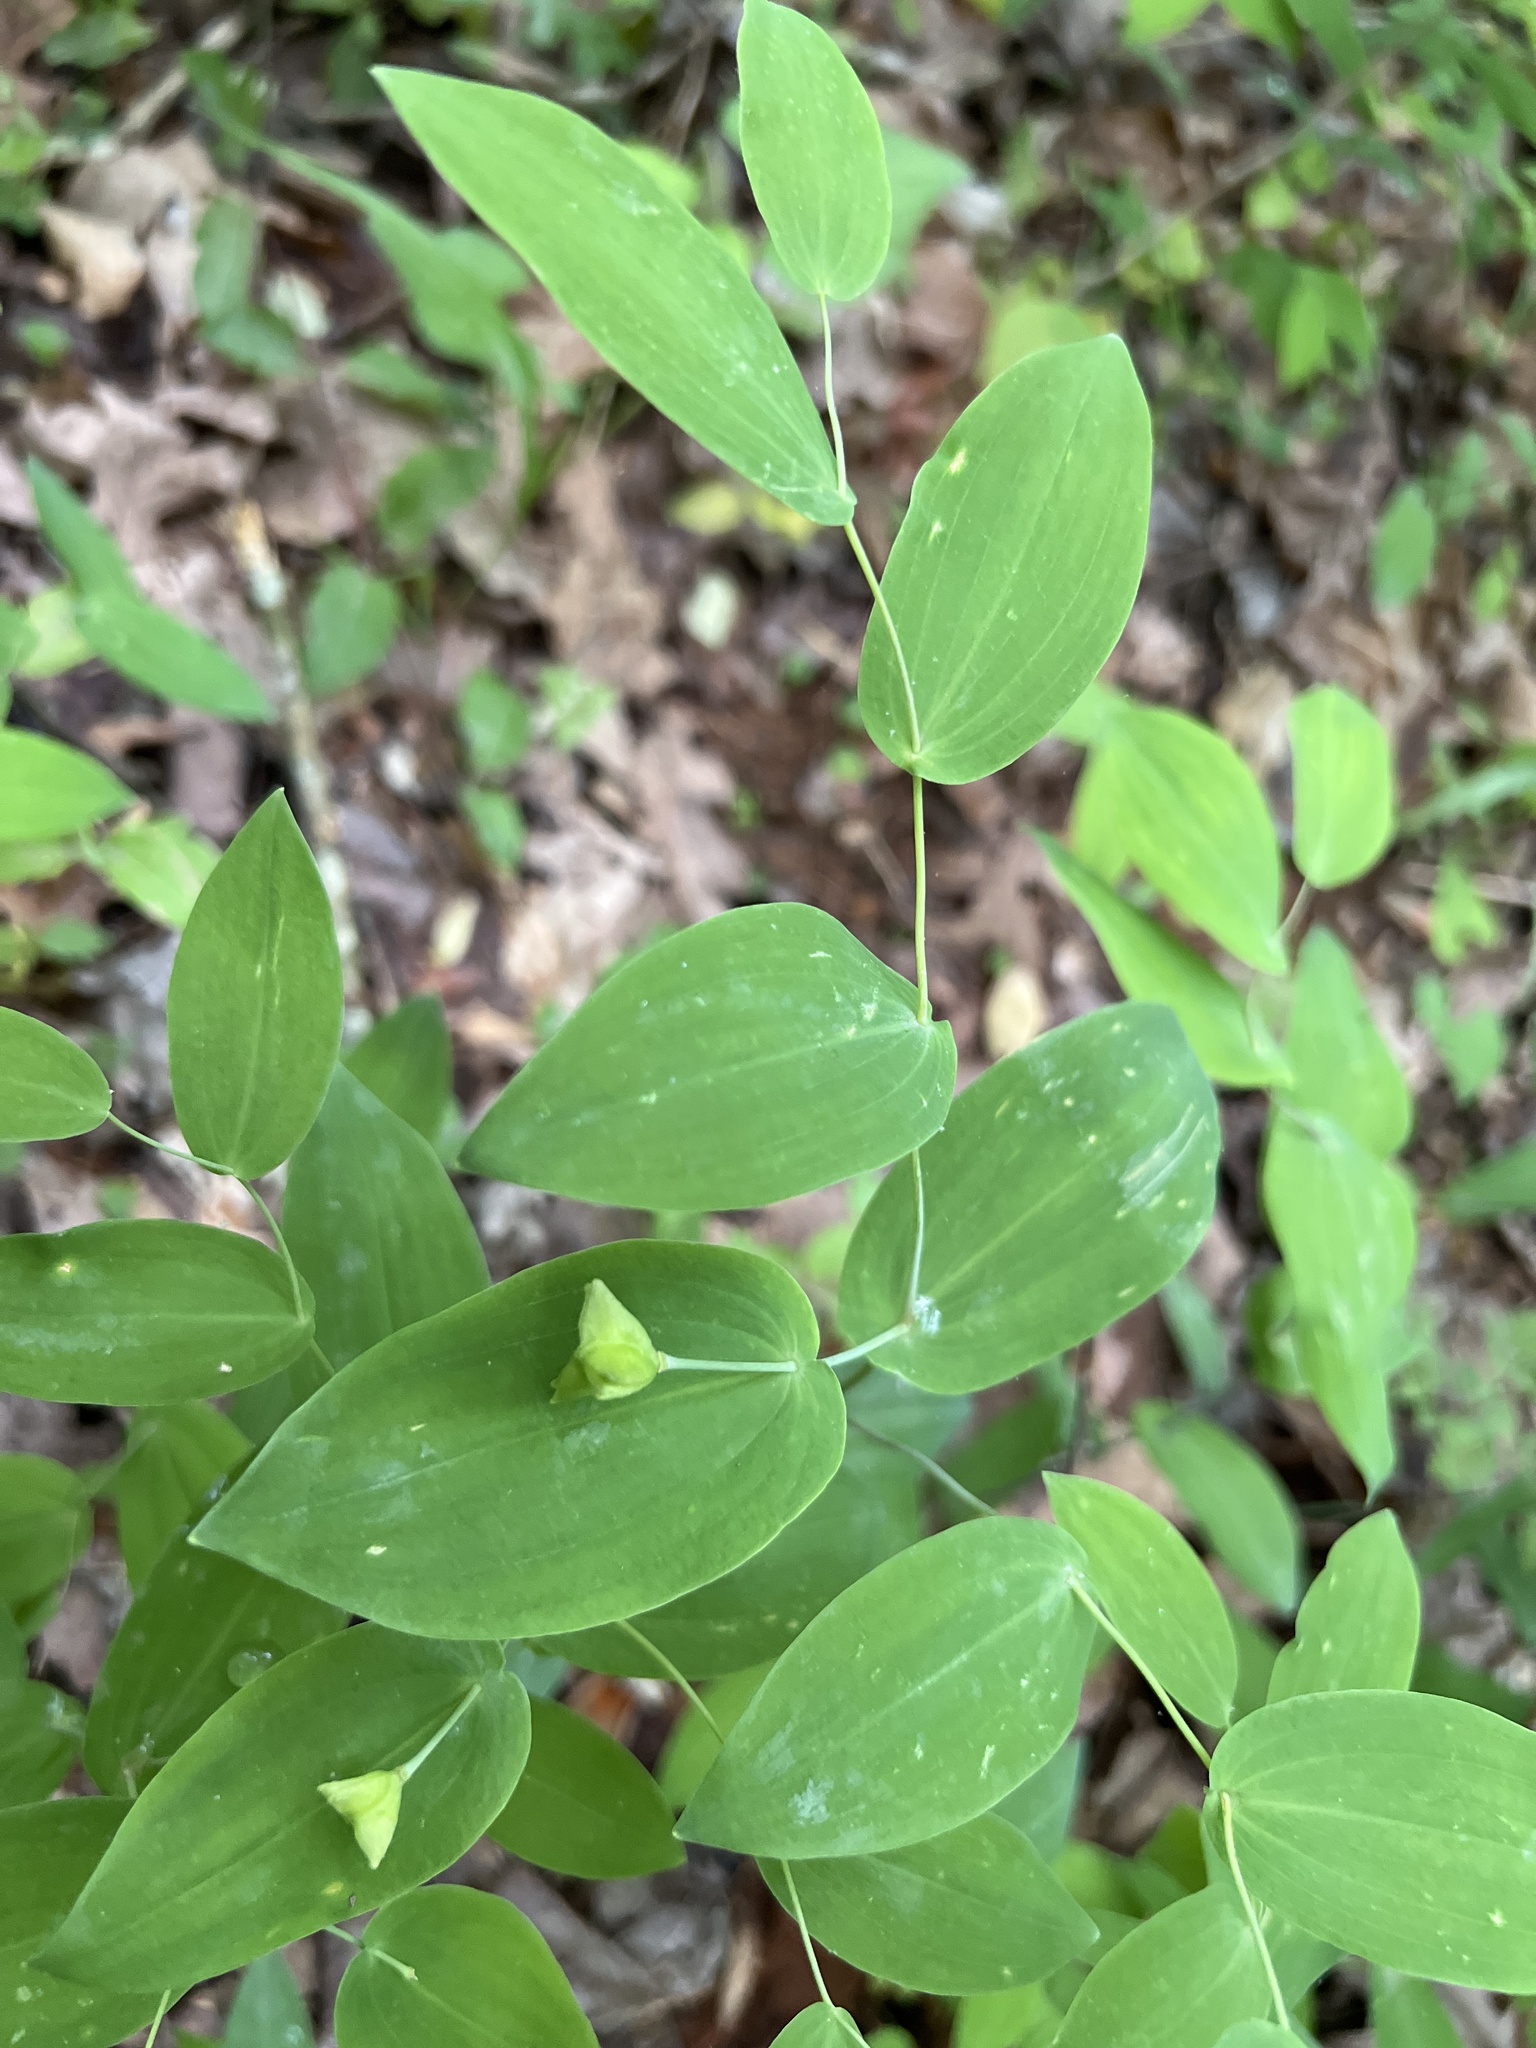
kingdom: Plantae
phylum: Tracheophyta
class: Liliopsida
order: Liliales
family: Colchicaceae
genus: Uvularia
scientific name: Uvularia perfoliata
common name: Perfoliate bellwort
